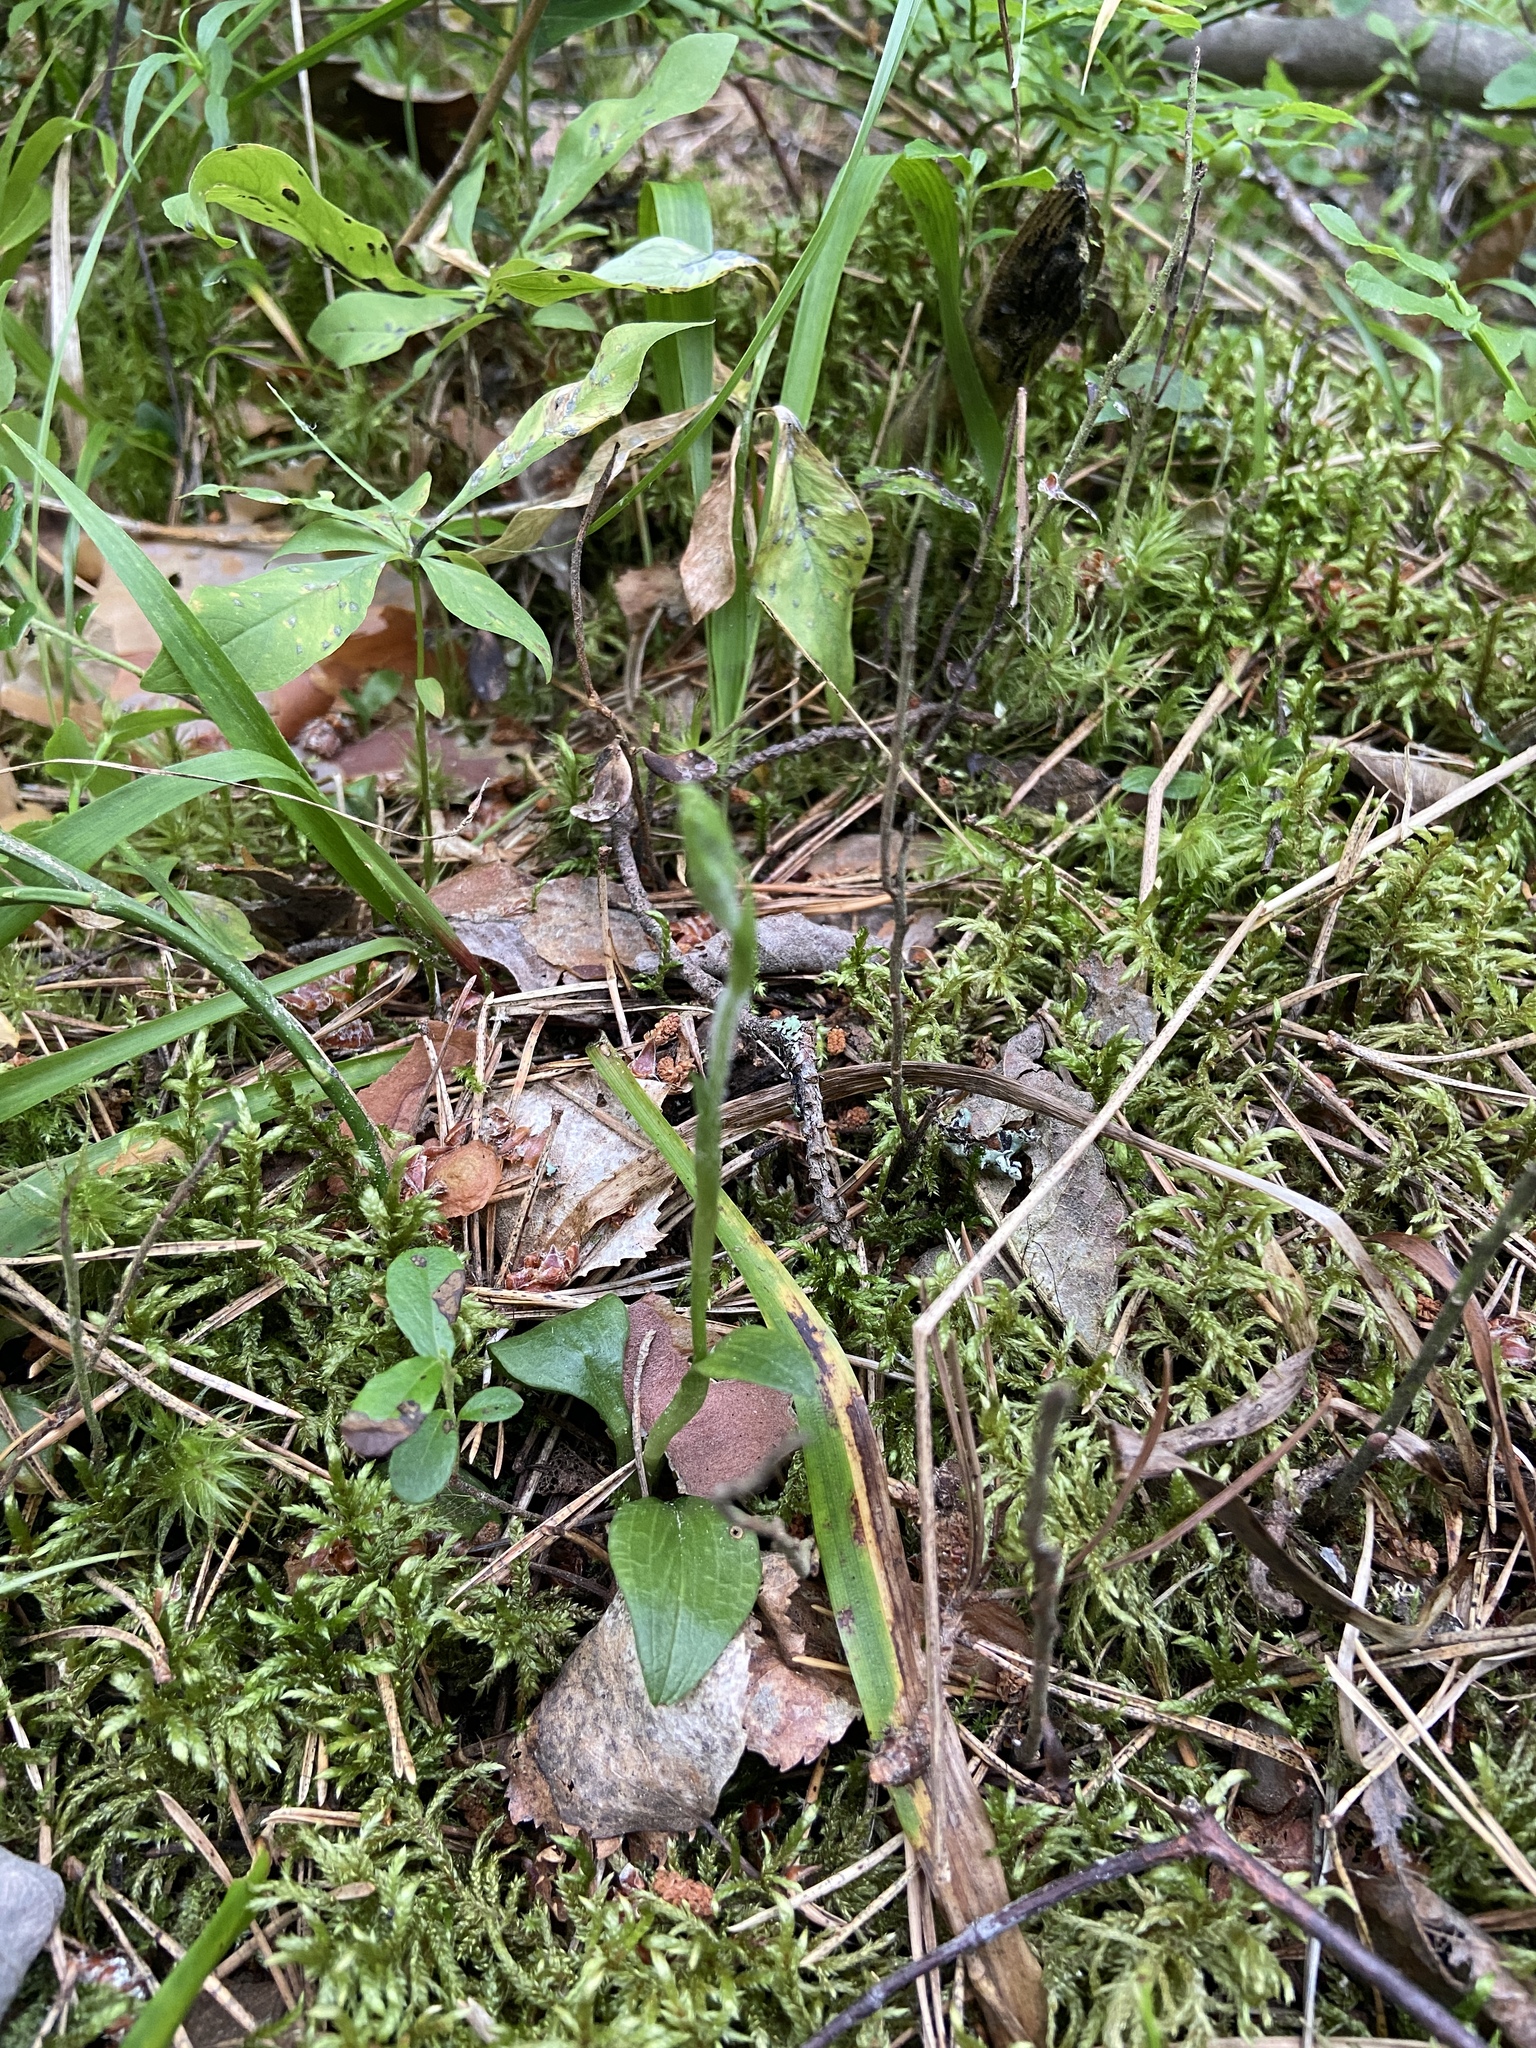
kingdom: Plantae
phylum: Tracheophyta
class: Liliopsida
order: Asparagales
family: Orchidaceae
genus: Goodyera
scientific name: Goodyera repens
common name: Creeping lady's-tresses
